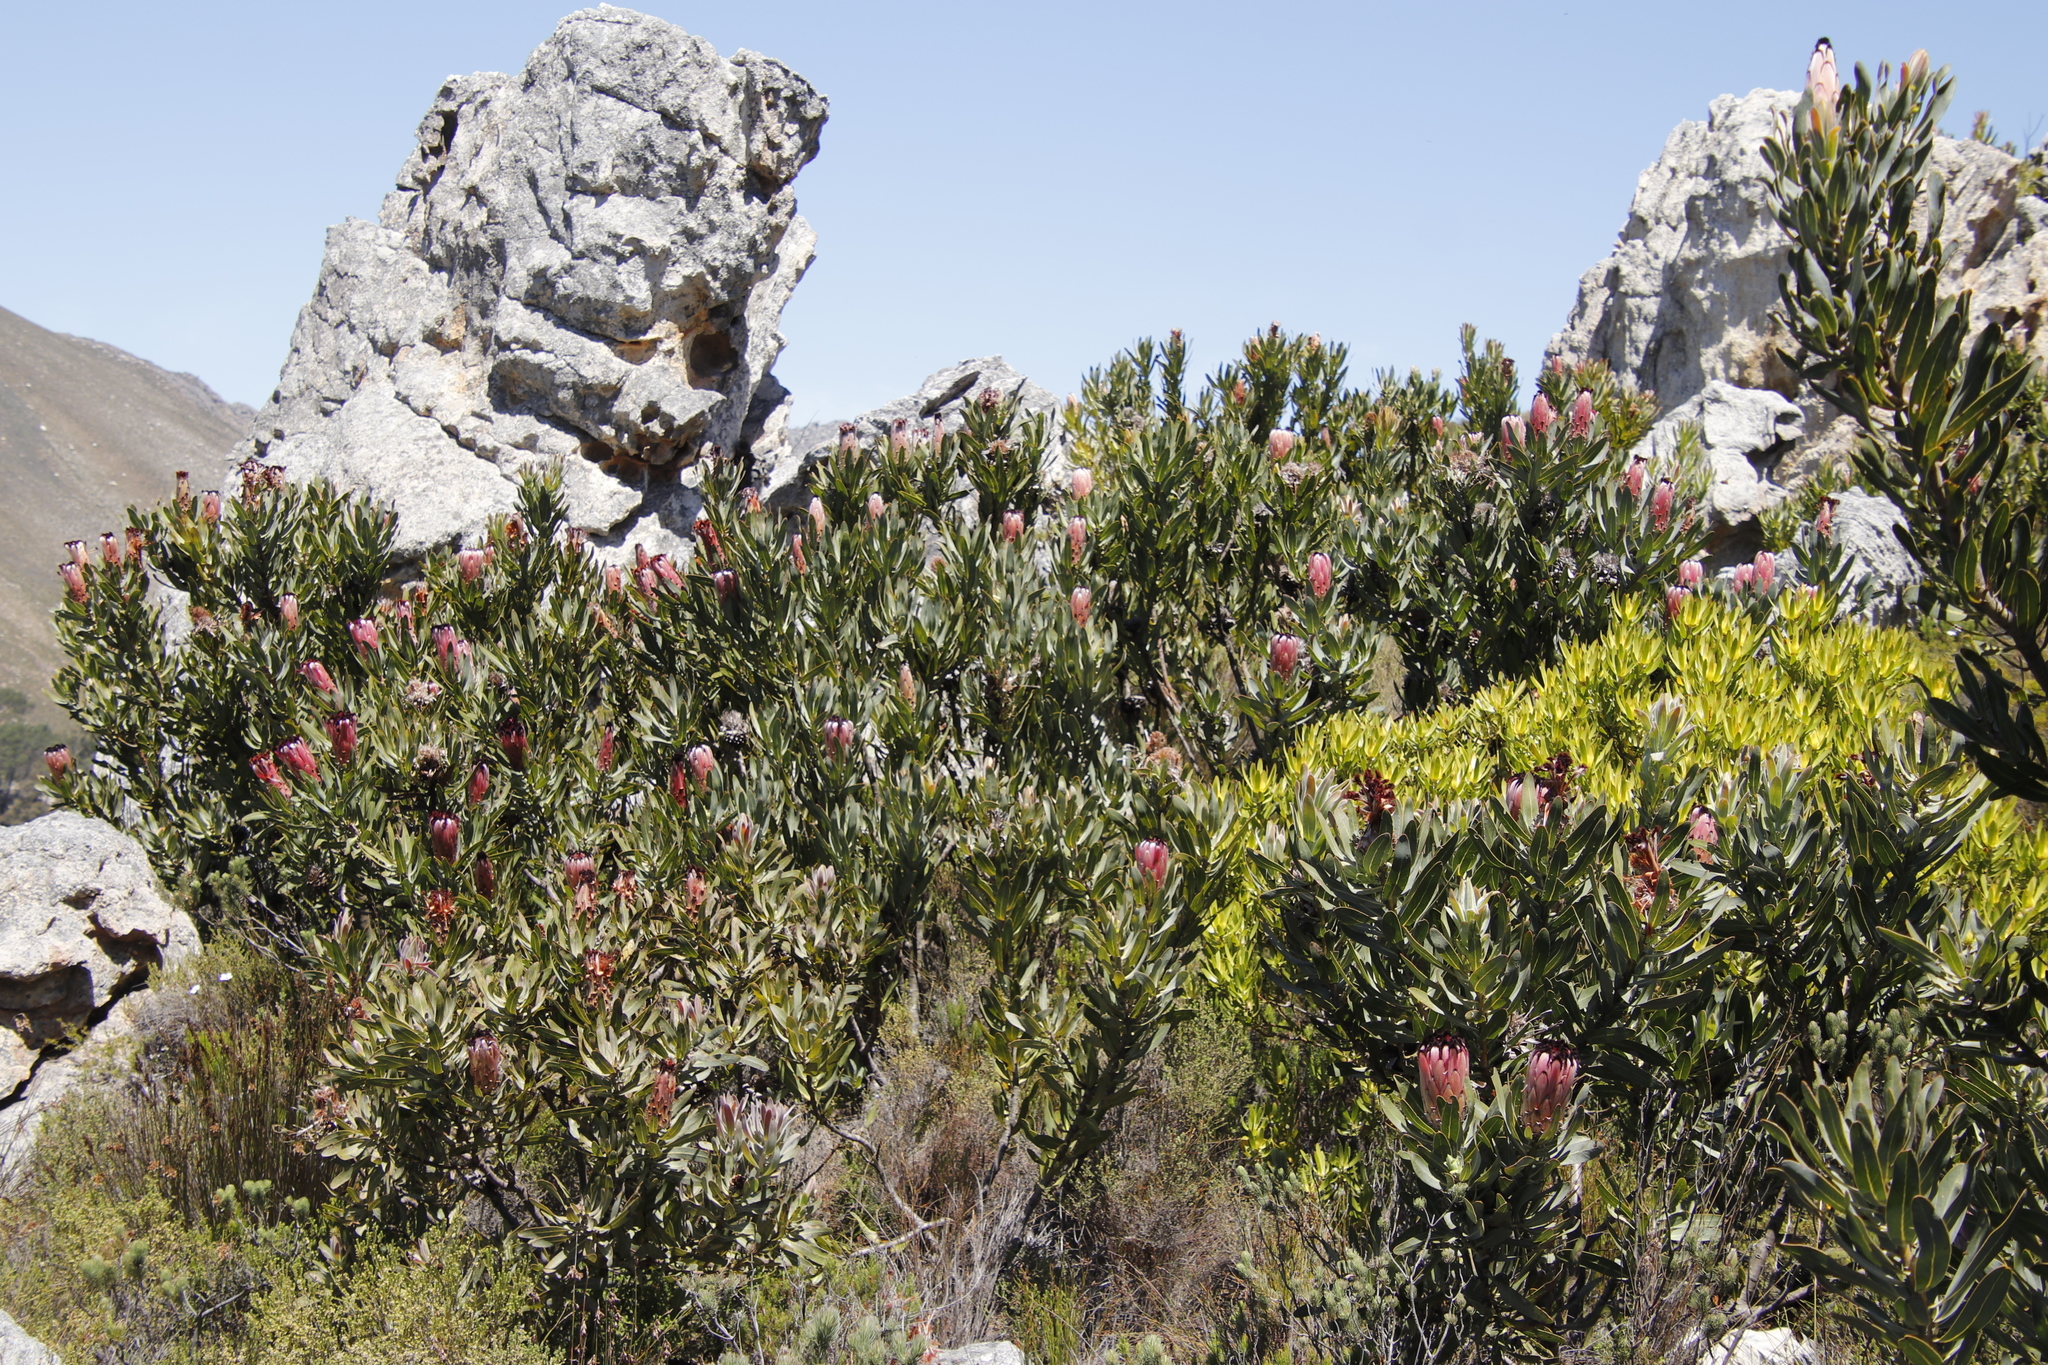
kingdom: Plantae
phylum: Tracheophyta
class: Magnoliopsida
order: Proteales
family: Proteaceae
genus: Protea
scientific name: Protea laurifolia
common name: Grey-leaf sugarbsh
